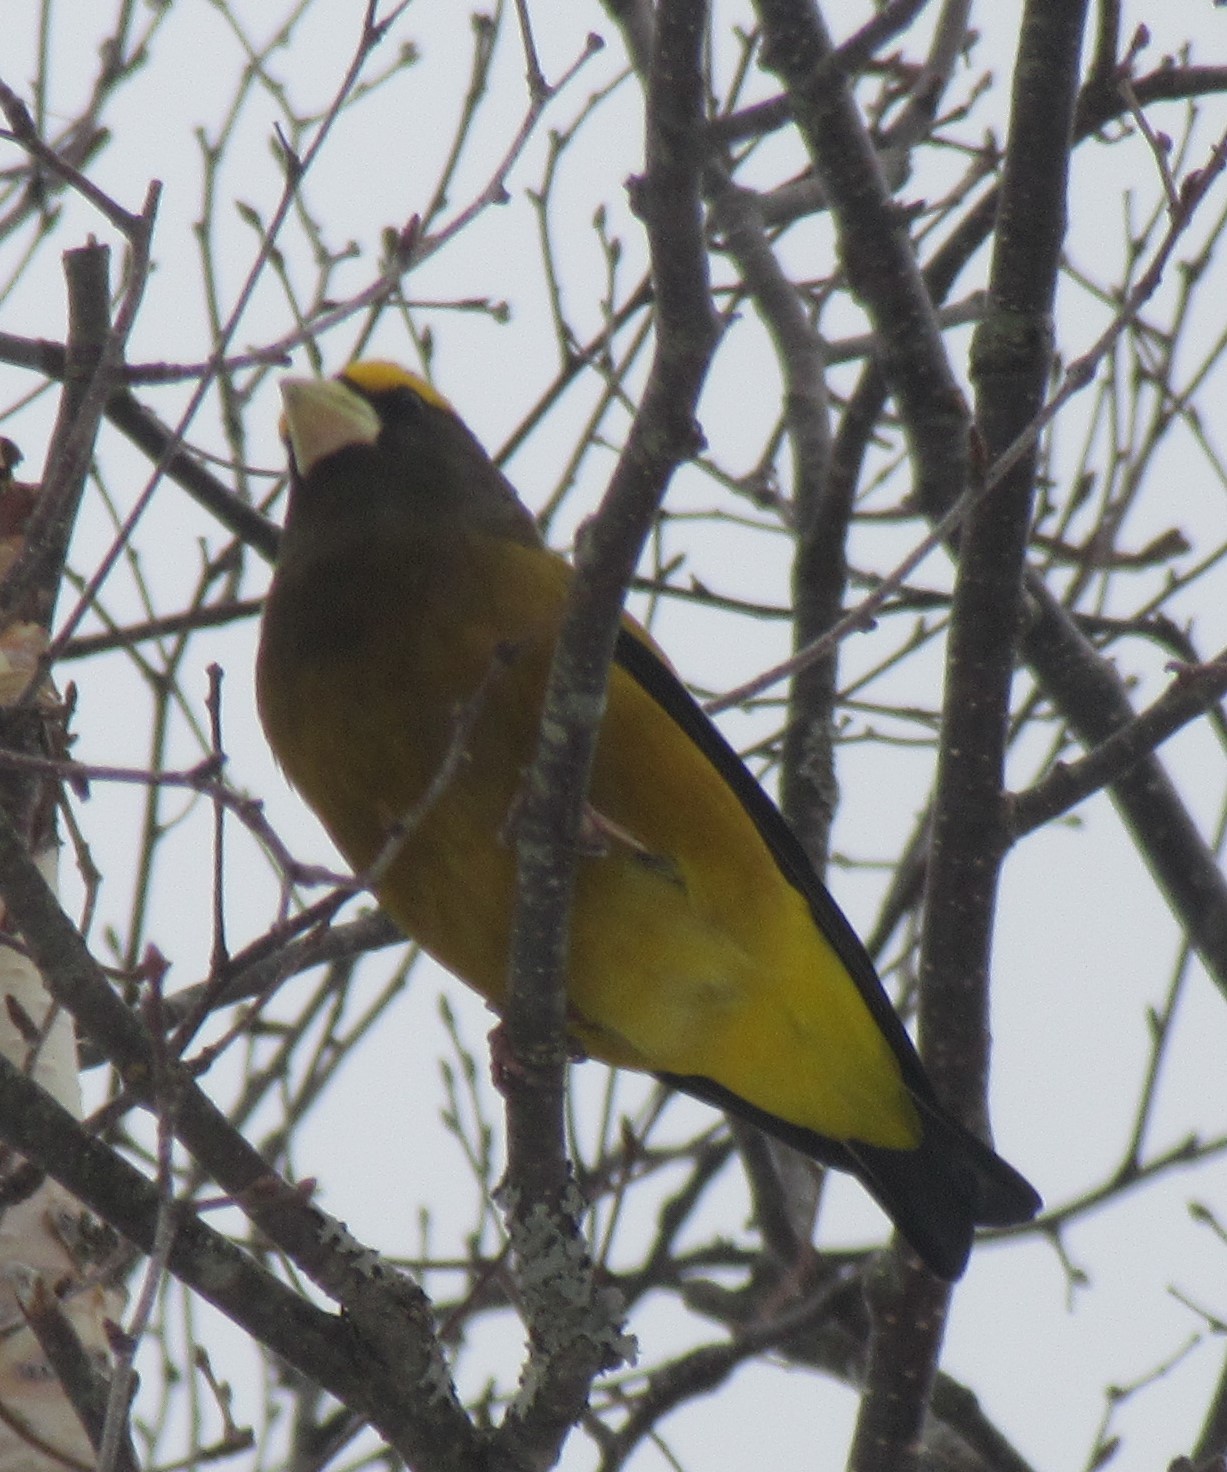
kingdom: Animalia
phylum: Chordata
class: Aves
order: Passeriformes
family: Fringillidae
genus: Hesperiphona
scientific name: Hesperiphona vespertina
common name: Evening grosbeak
